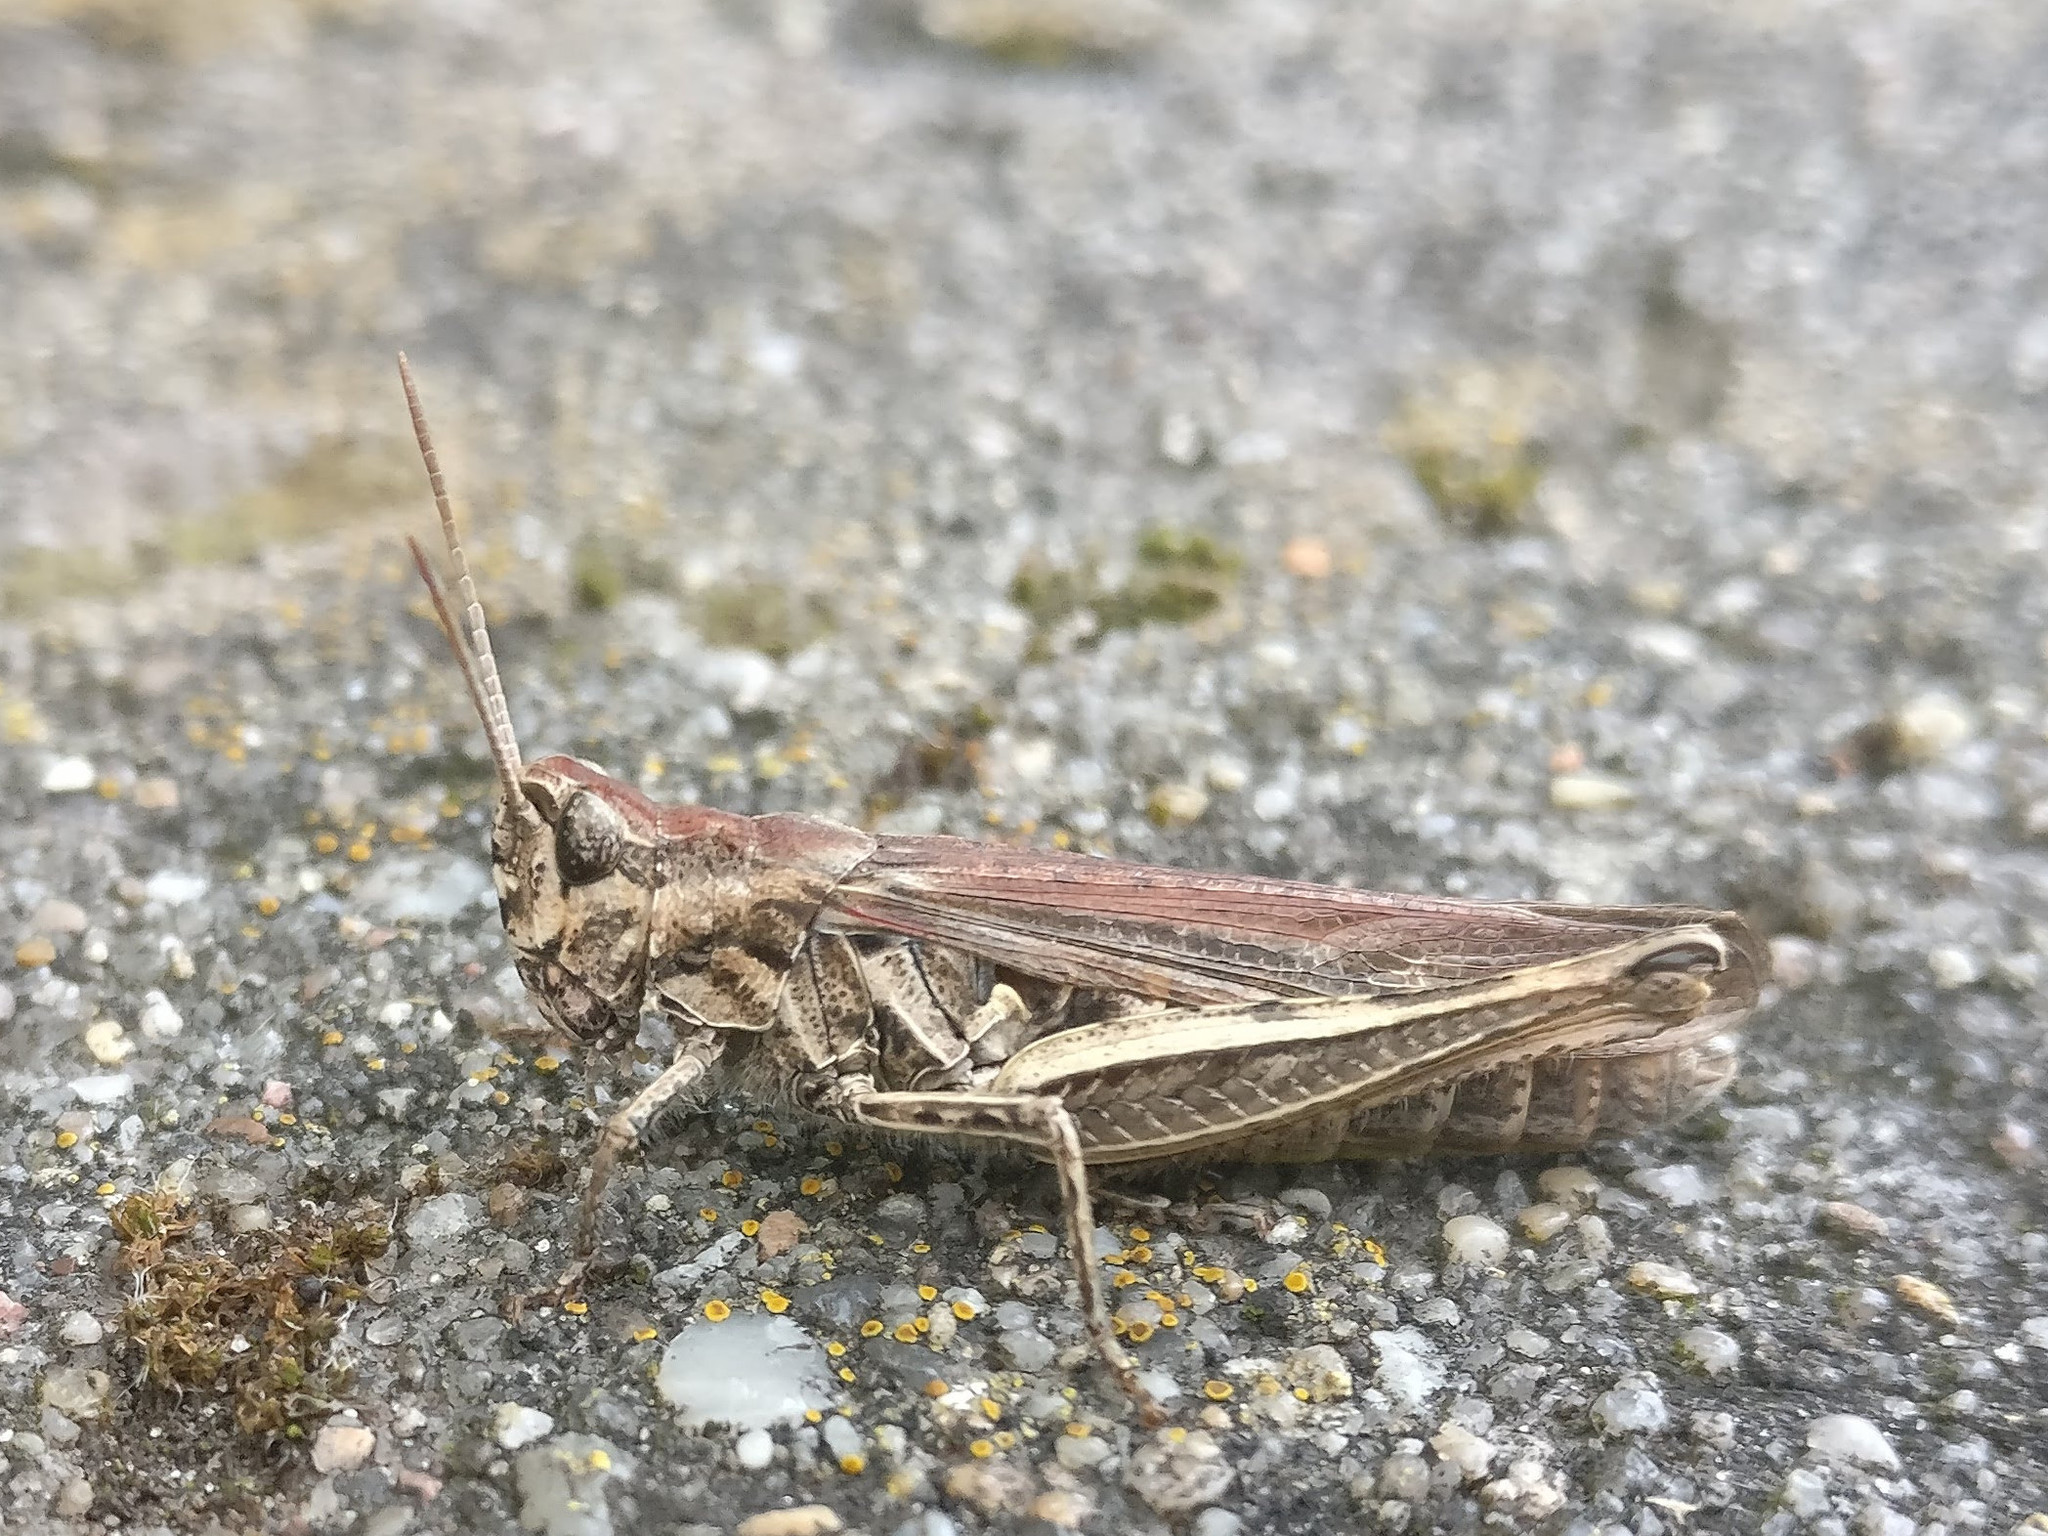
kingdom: Animalia
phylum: Arthropoda
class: Insecta
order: Orthoptera
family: Acrididae
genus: Chorthippus
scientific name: Chorthippus brunneus
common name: Field grasshopper
